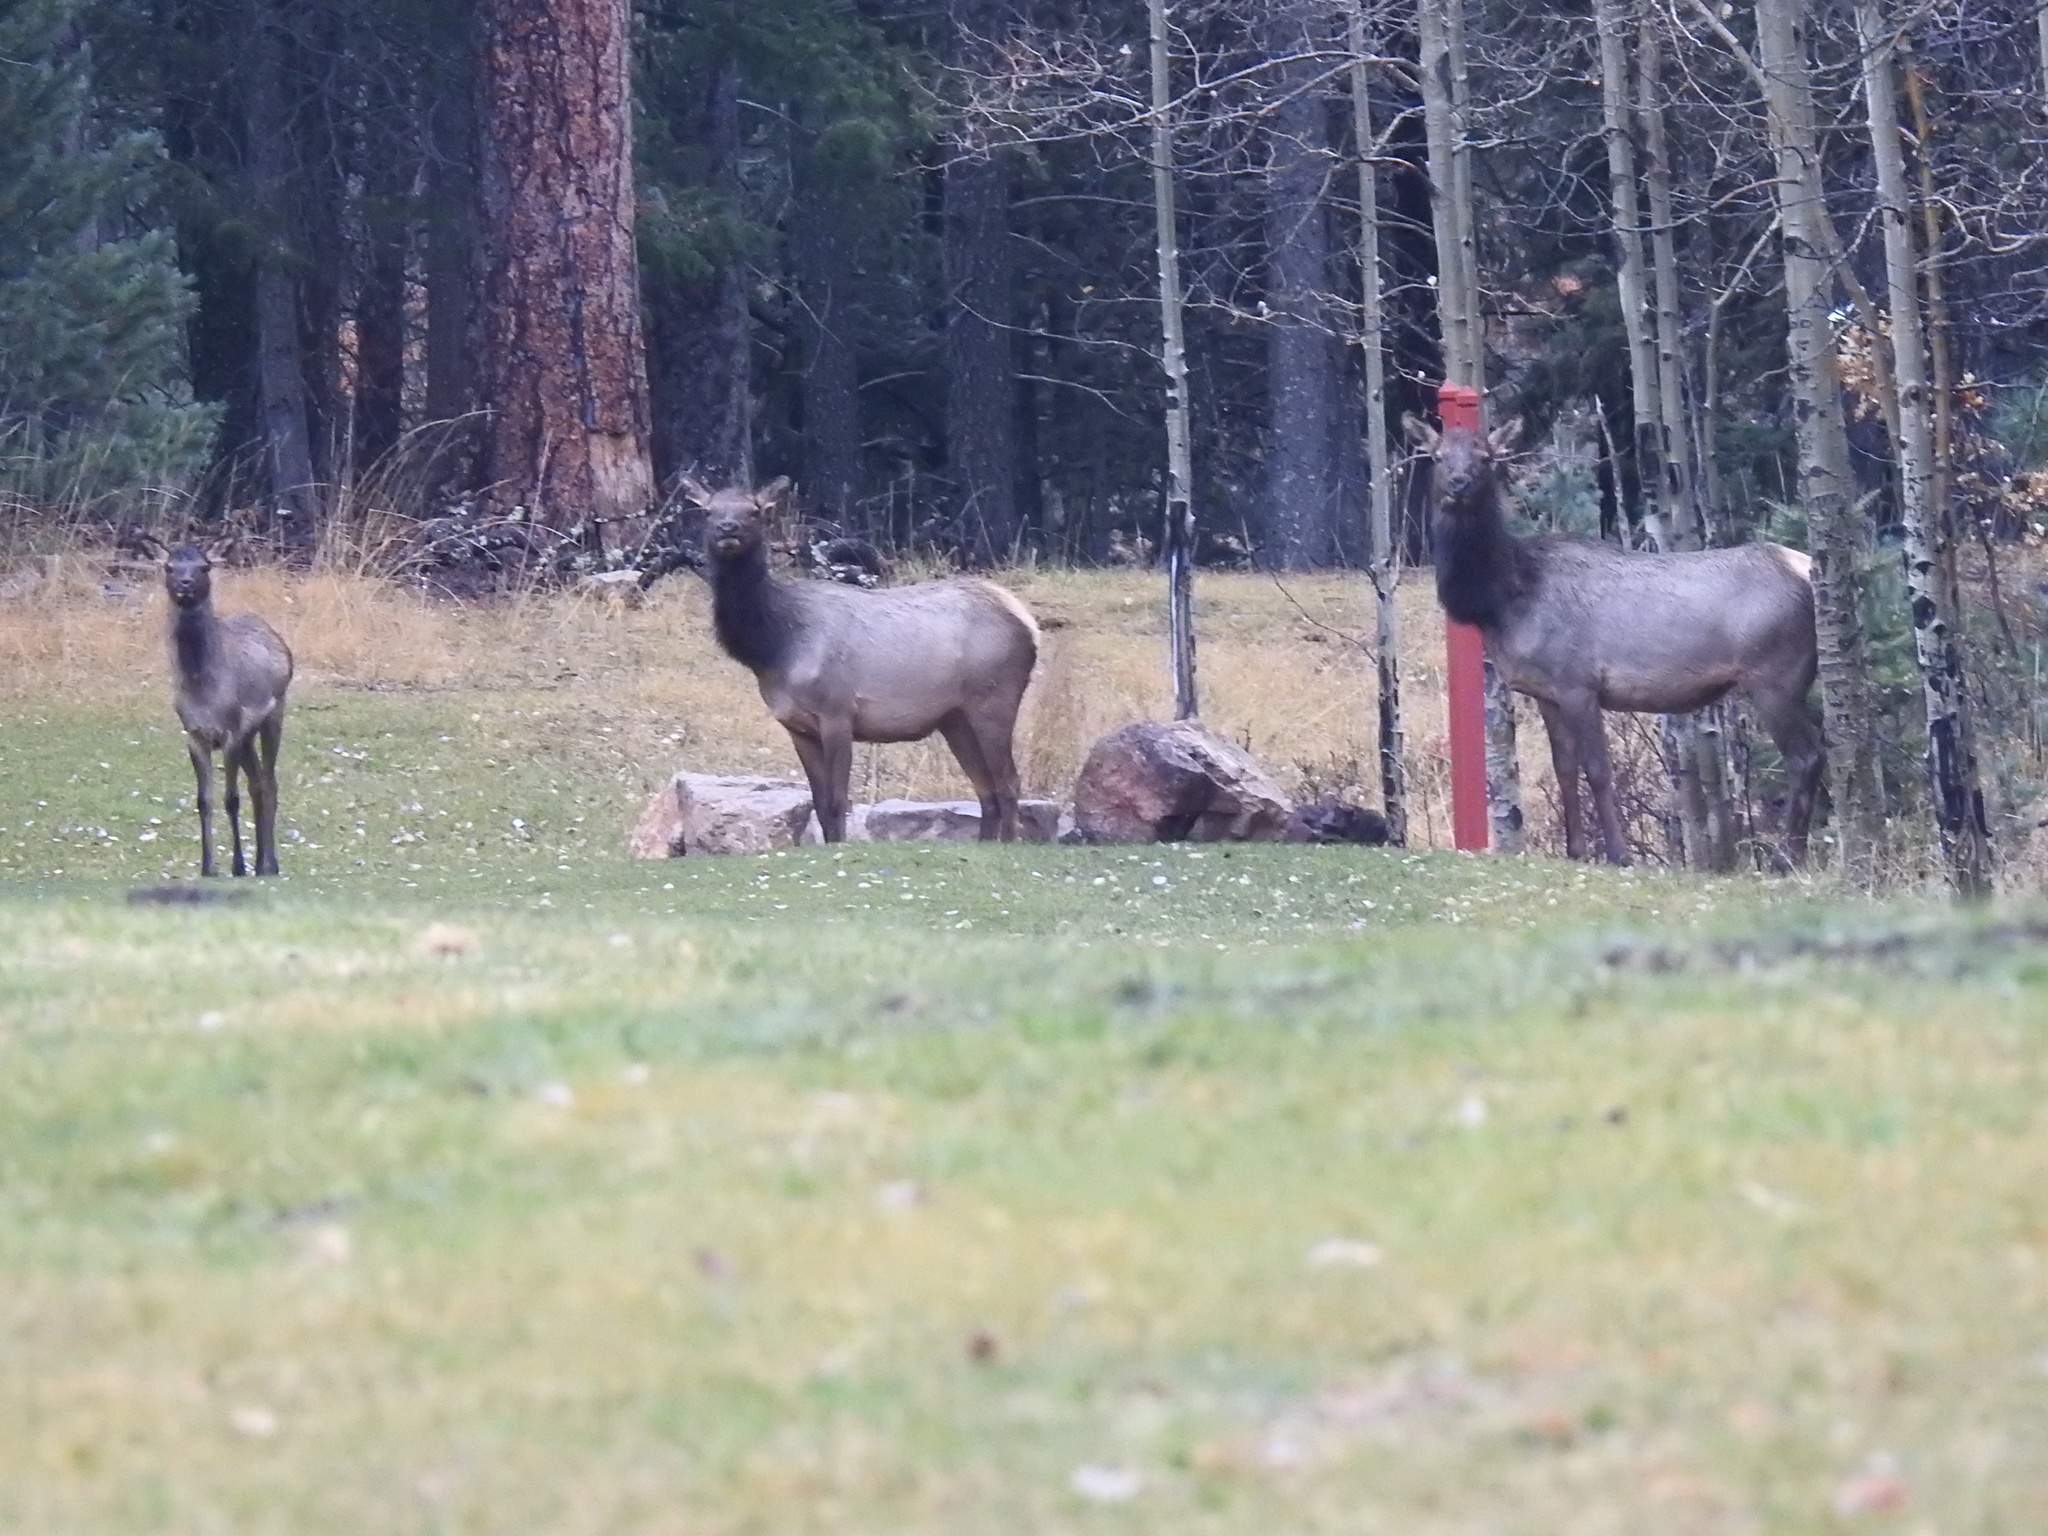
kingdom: Animalia
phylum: Chordata
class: Mammalia
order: Artiodactyla
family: Cervidae
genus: Cervus
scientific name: Cervus elaphus
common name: Red deer
